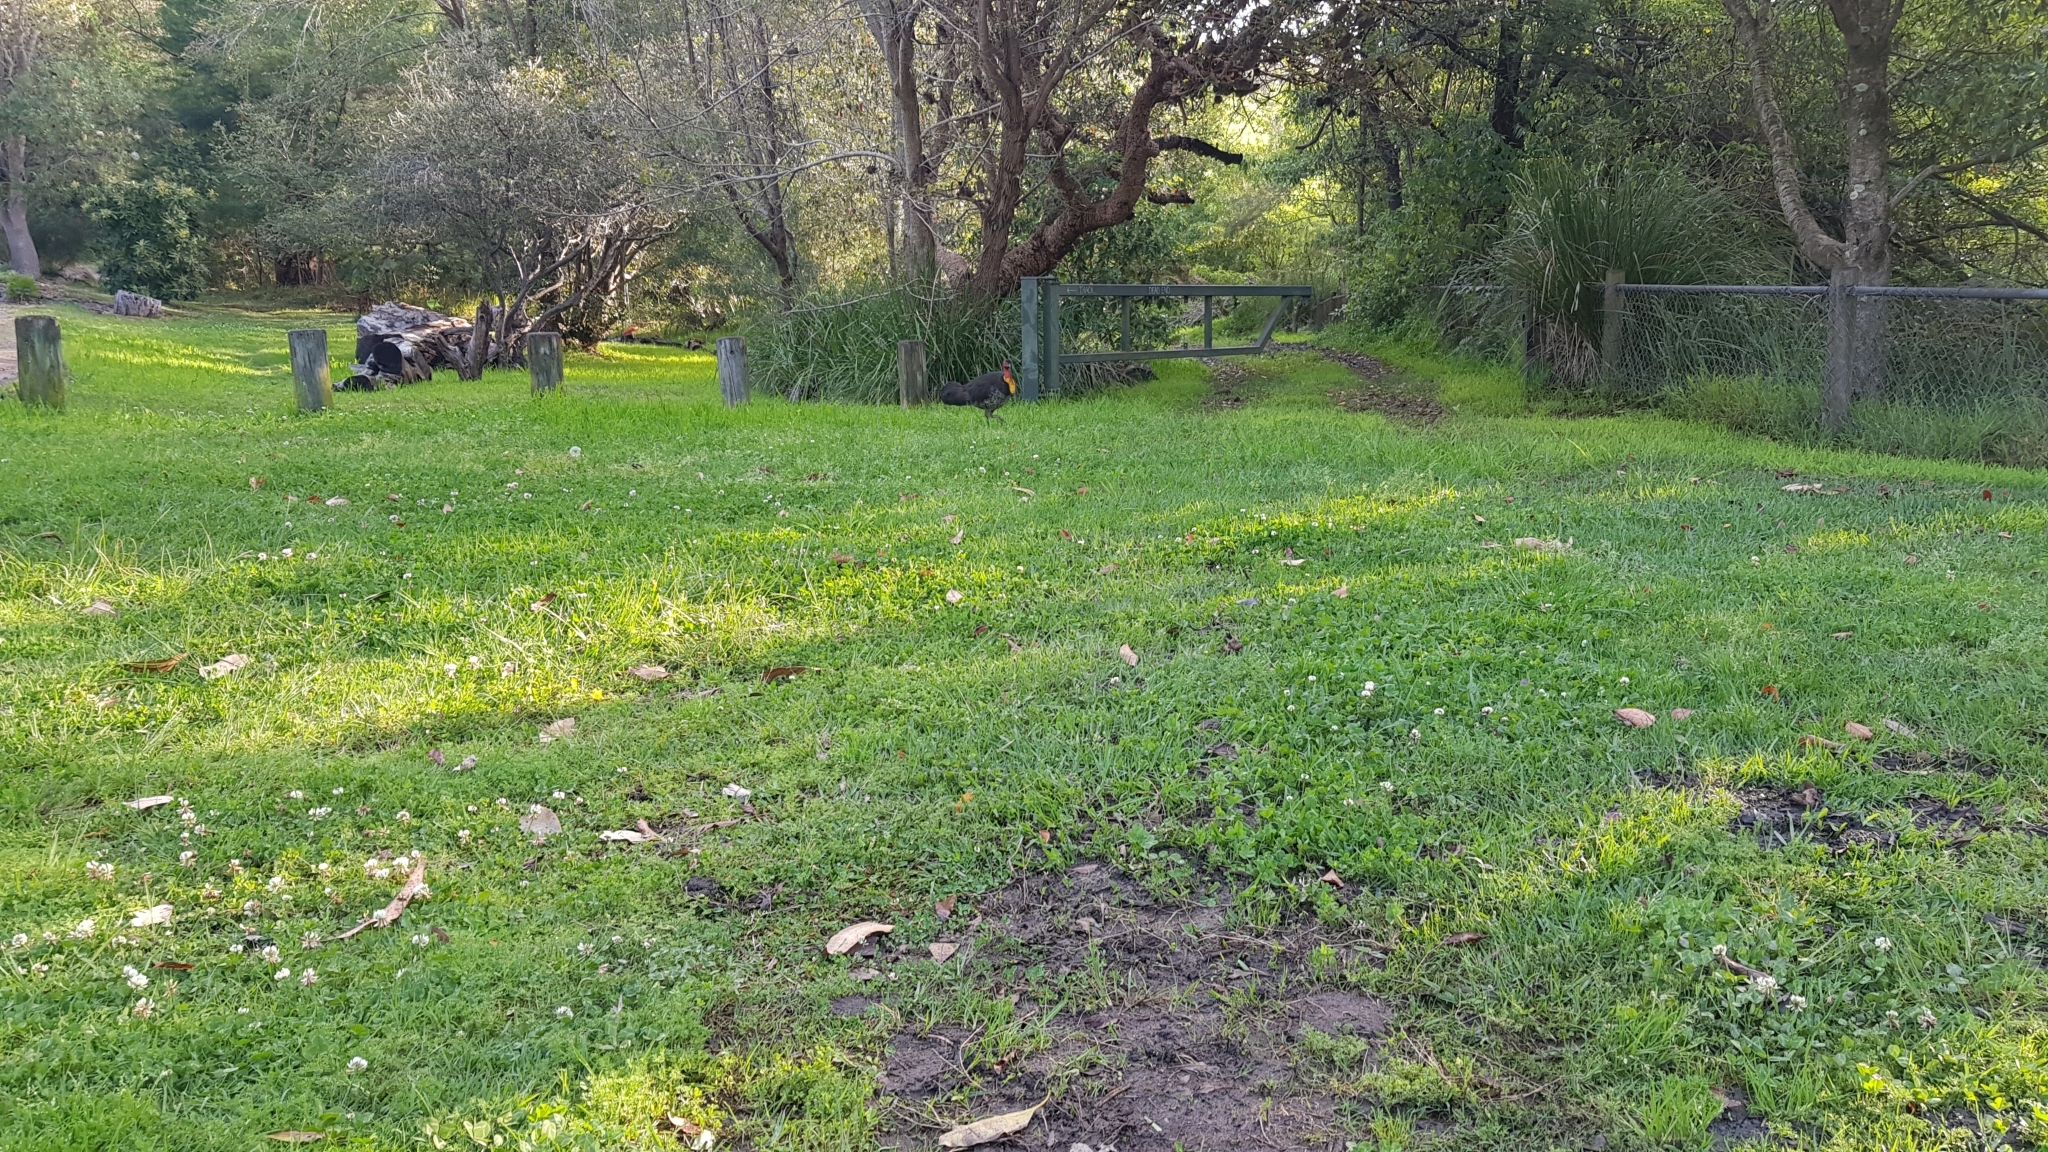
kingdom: Animalia
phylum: Chordata
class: Aves
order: Galliformes
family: Megapodiidae
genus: Alectura
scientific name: Alectura lathami
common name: Australian brushturkey
